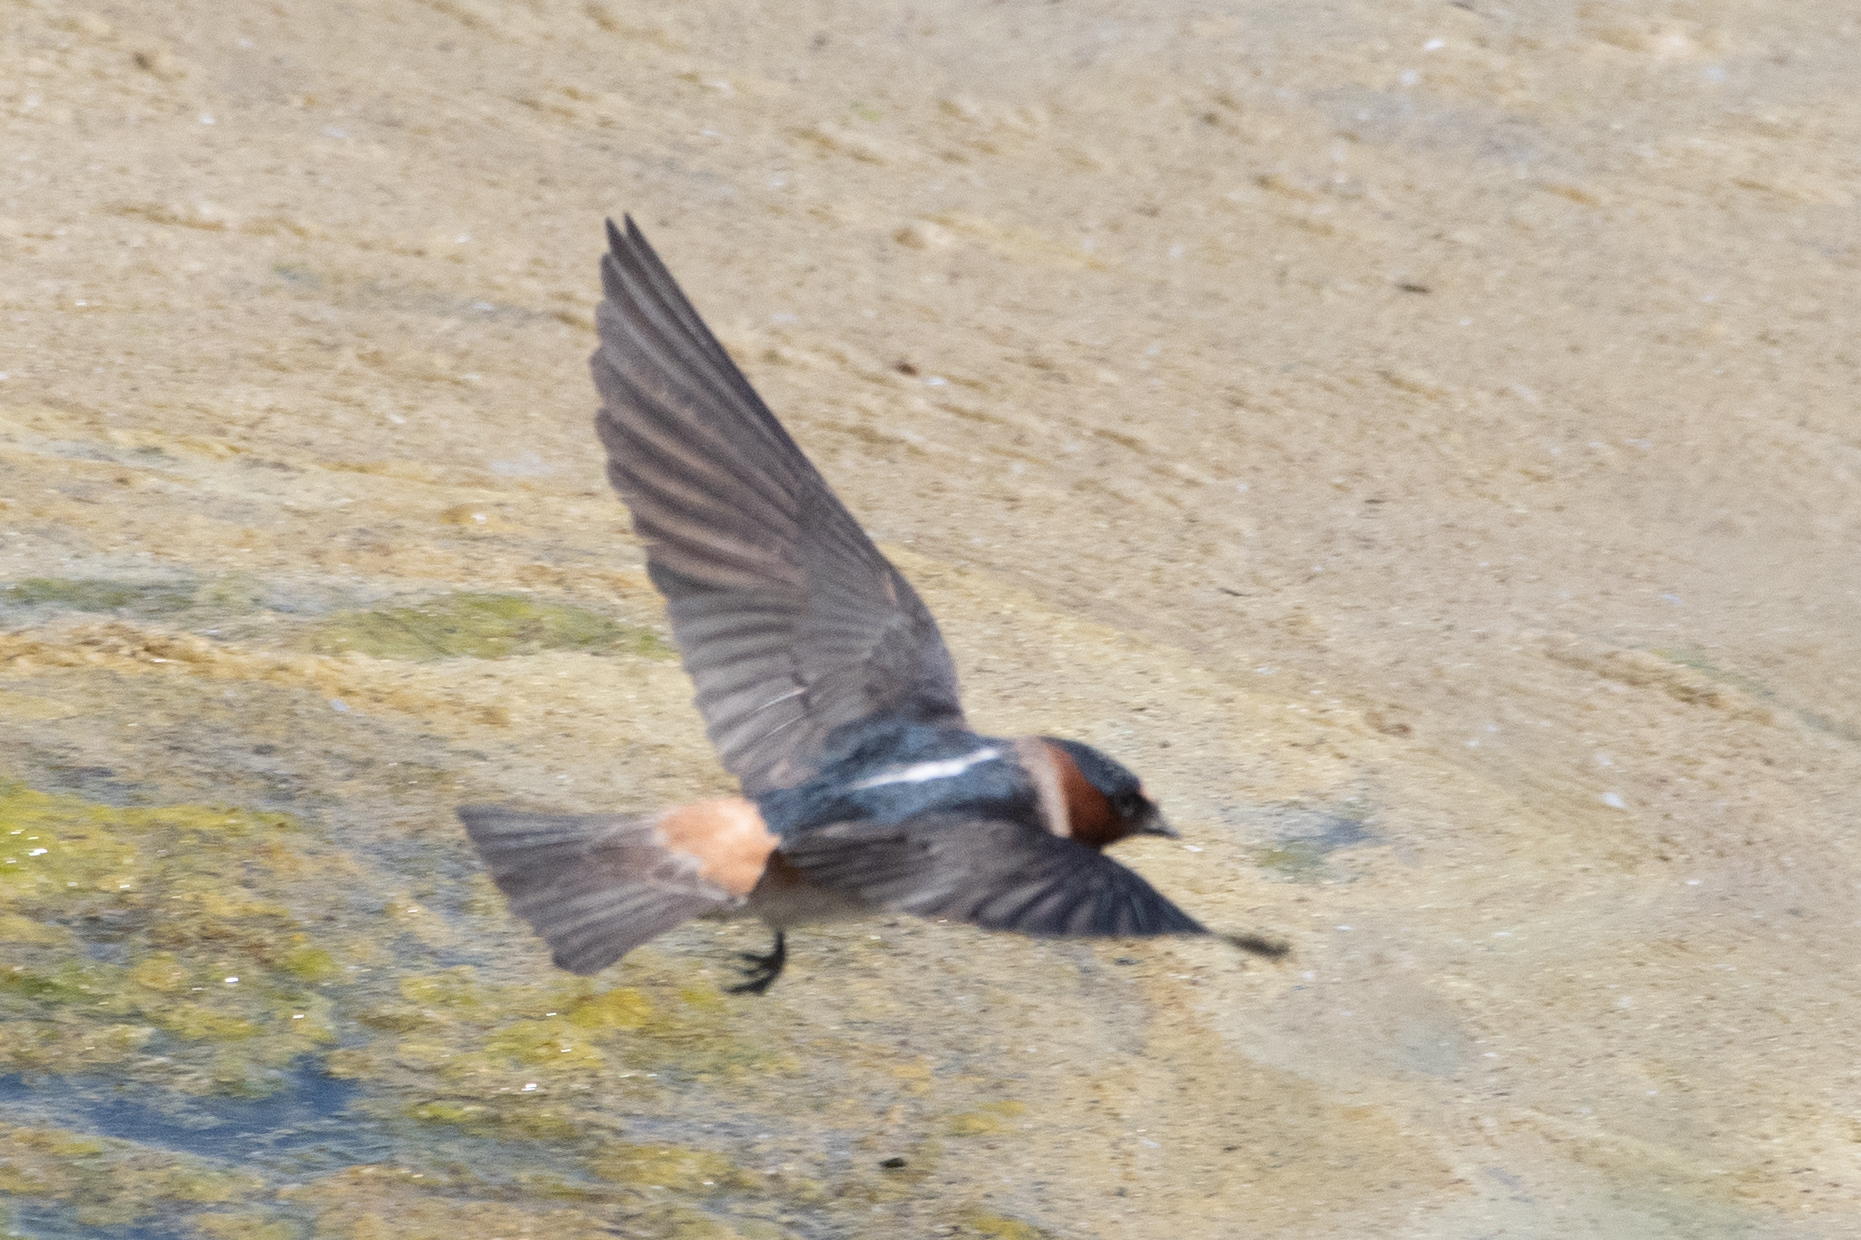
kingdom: Animalia
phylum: Chordata
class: Aves
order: Passeriformes
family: Hirundinidae
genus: Petrochelidon
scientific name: Petrochelidon pyrrhonota
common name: American cliff swallow
